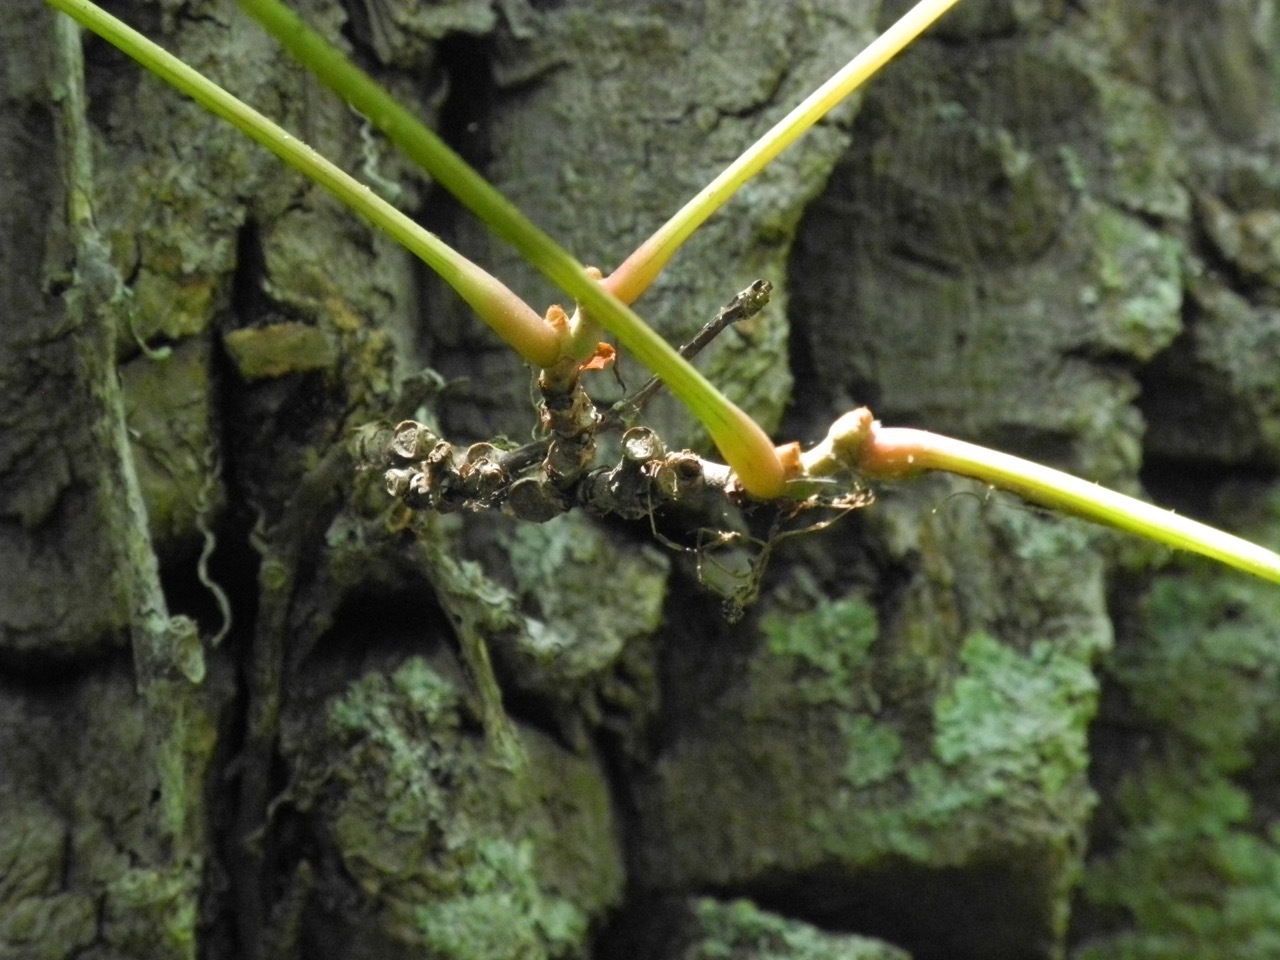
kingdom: Plantae
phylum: Tracheophyta
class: Magnoliopsida
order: Vitales
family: Vitaceae
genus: Parthenocissus
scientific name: Parthenocissus quinquefolia
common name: Virginia-creeper
